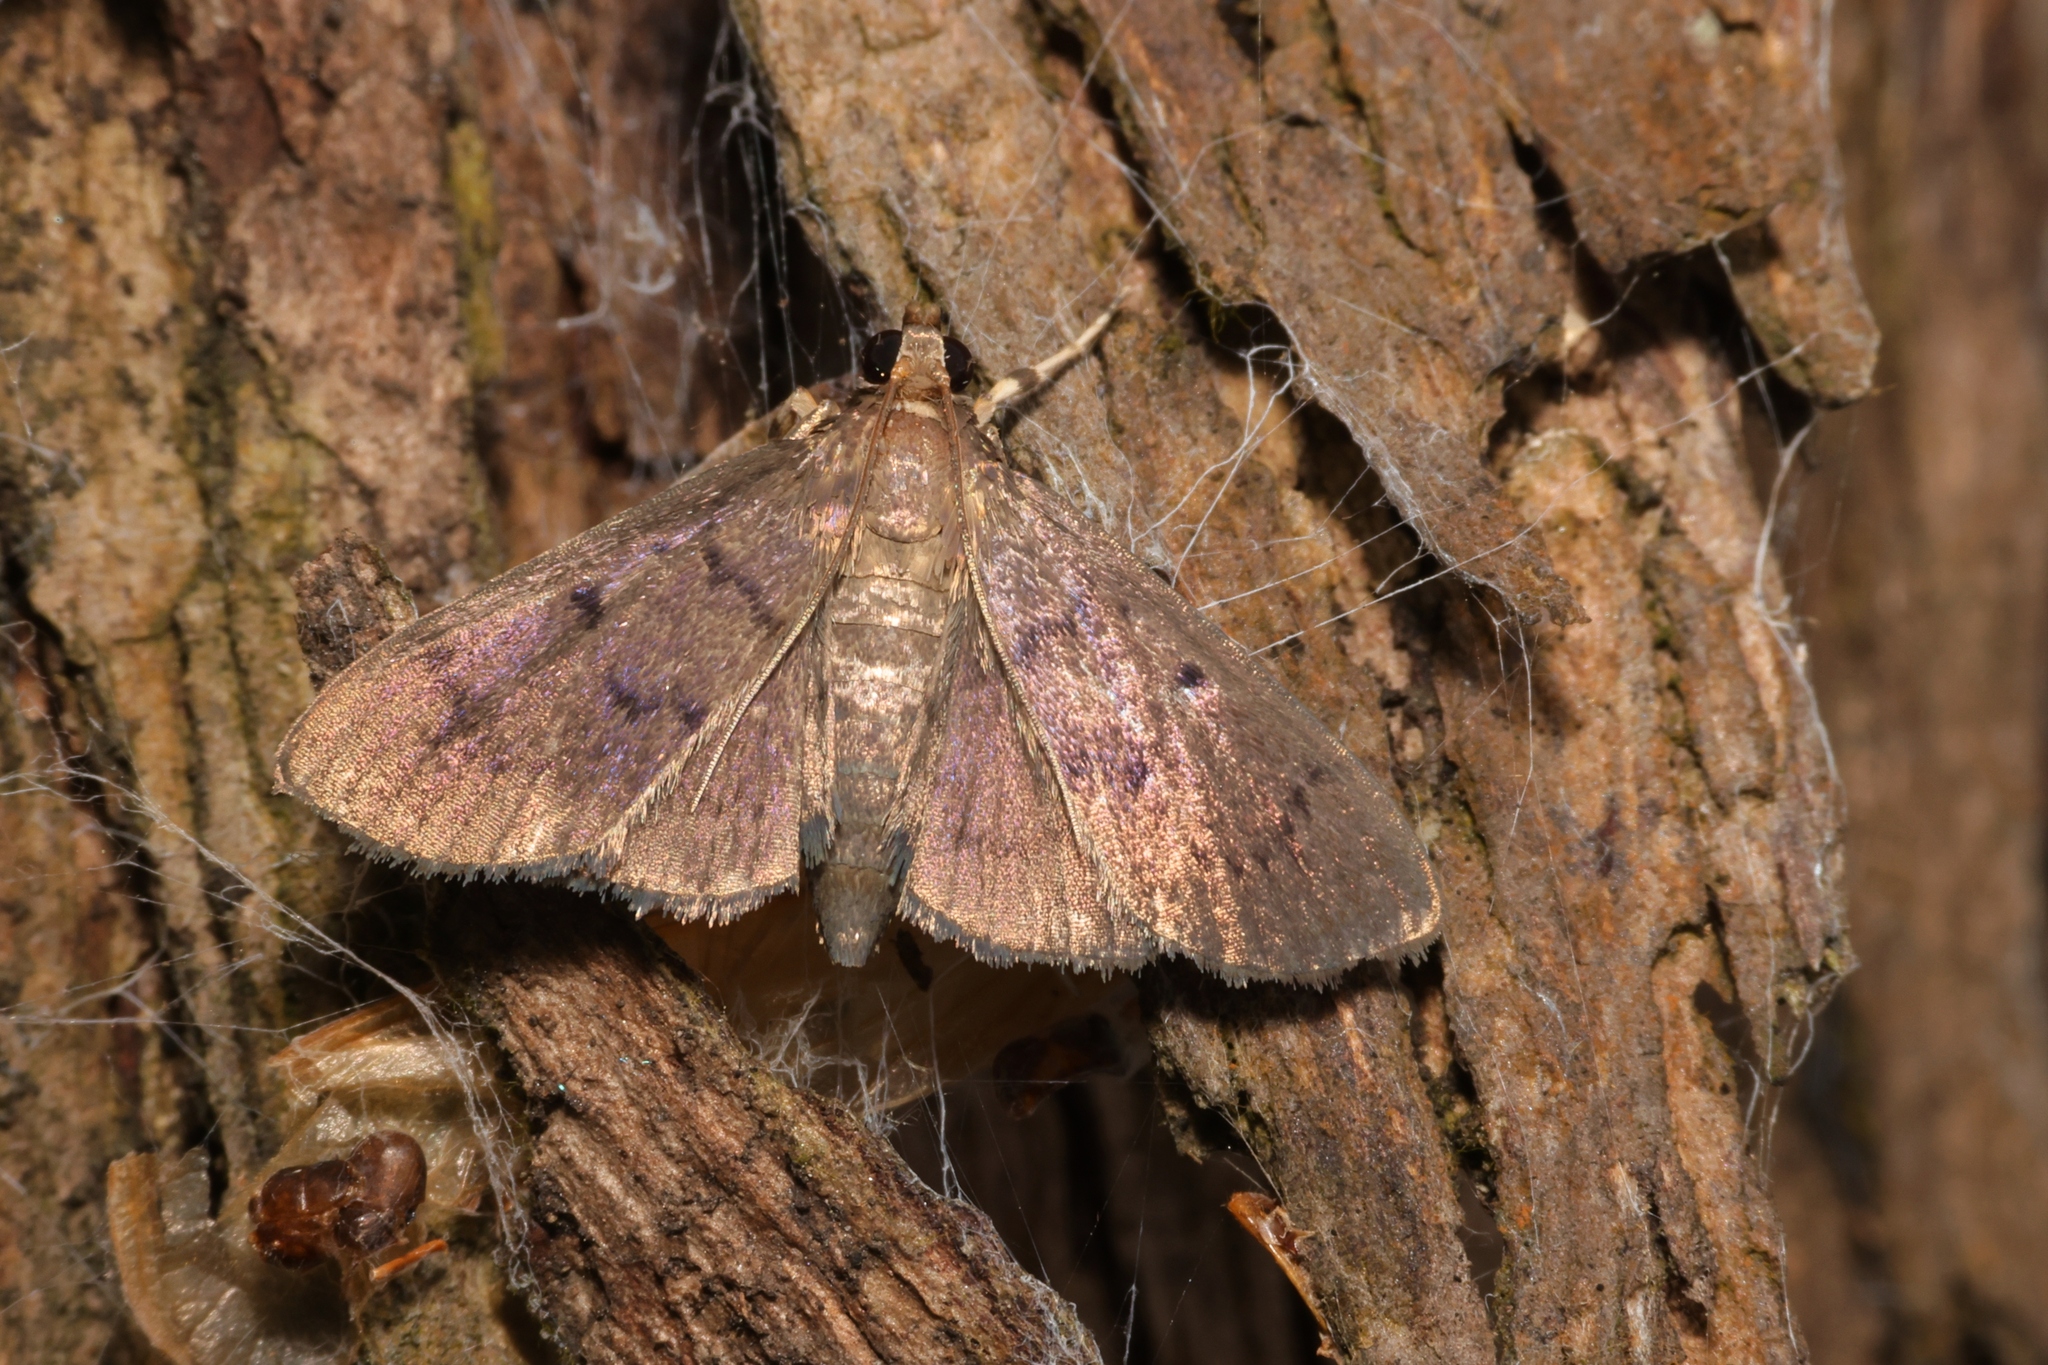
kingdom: Animalia
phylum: Arthropoda
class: Insecta
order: Lepidoptera
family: Crambidae
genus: Lamprosema
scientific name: Lamprosema tristrialis
